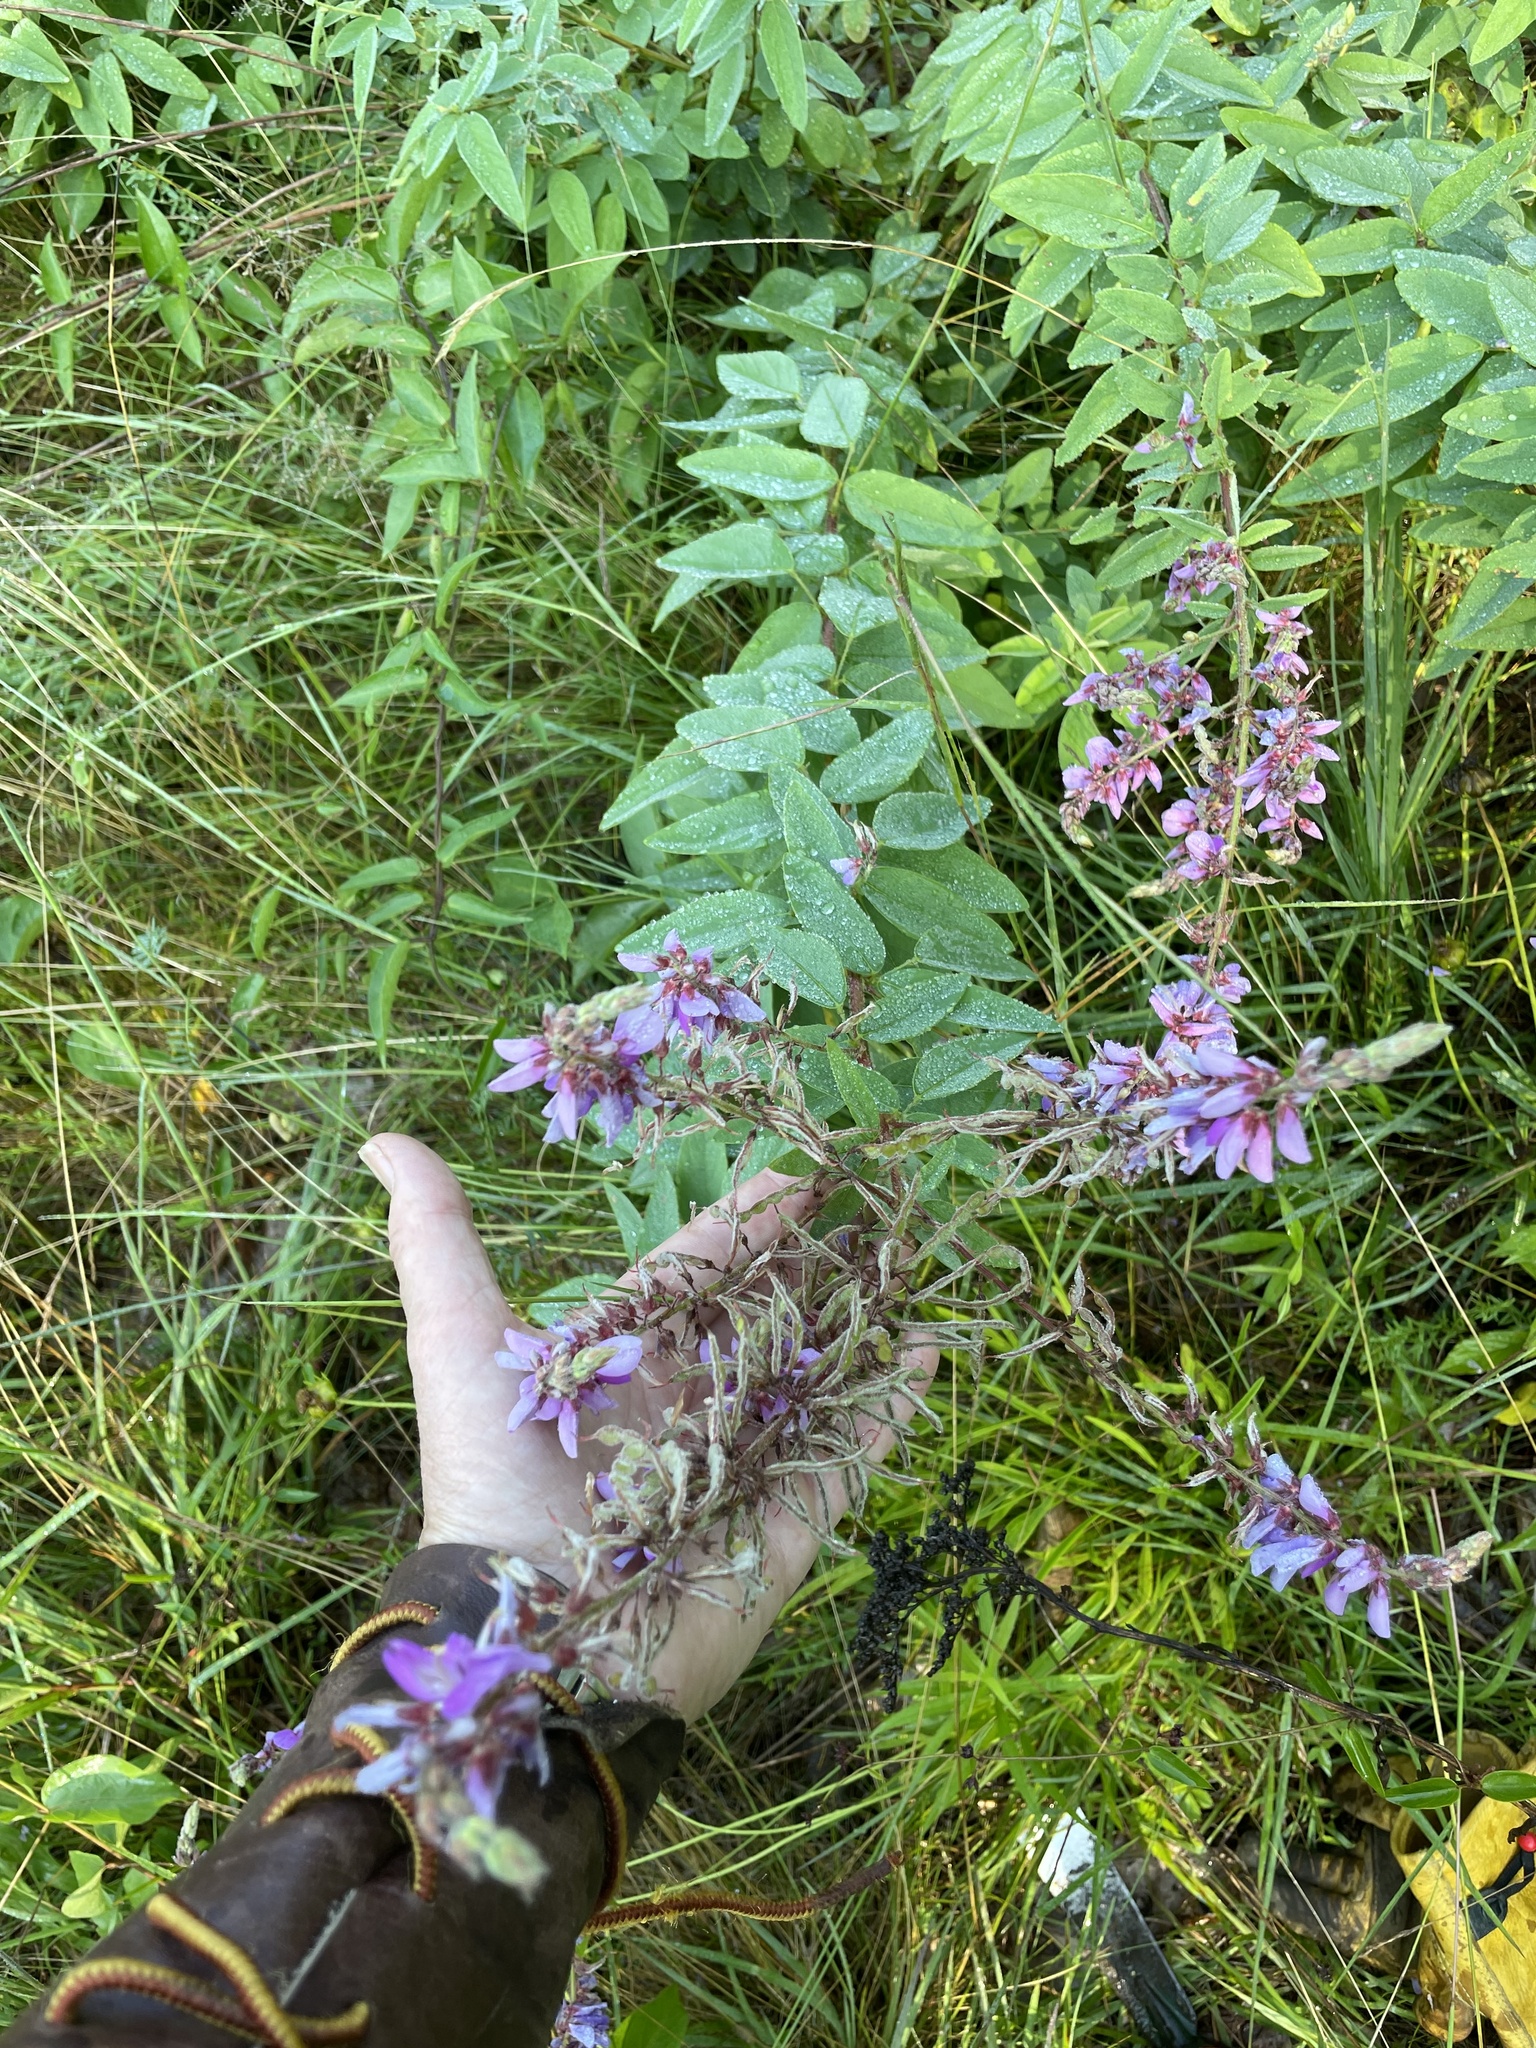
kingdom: Plantae
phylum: Tracheophyta
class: Magnoliopsida
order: Fabales
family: Fabaceae
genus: Desmodium
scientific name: Desmodium canadense
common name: Canada tick-trefoil
